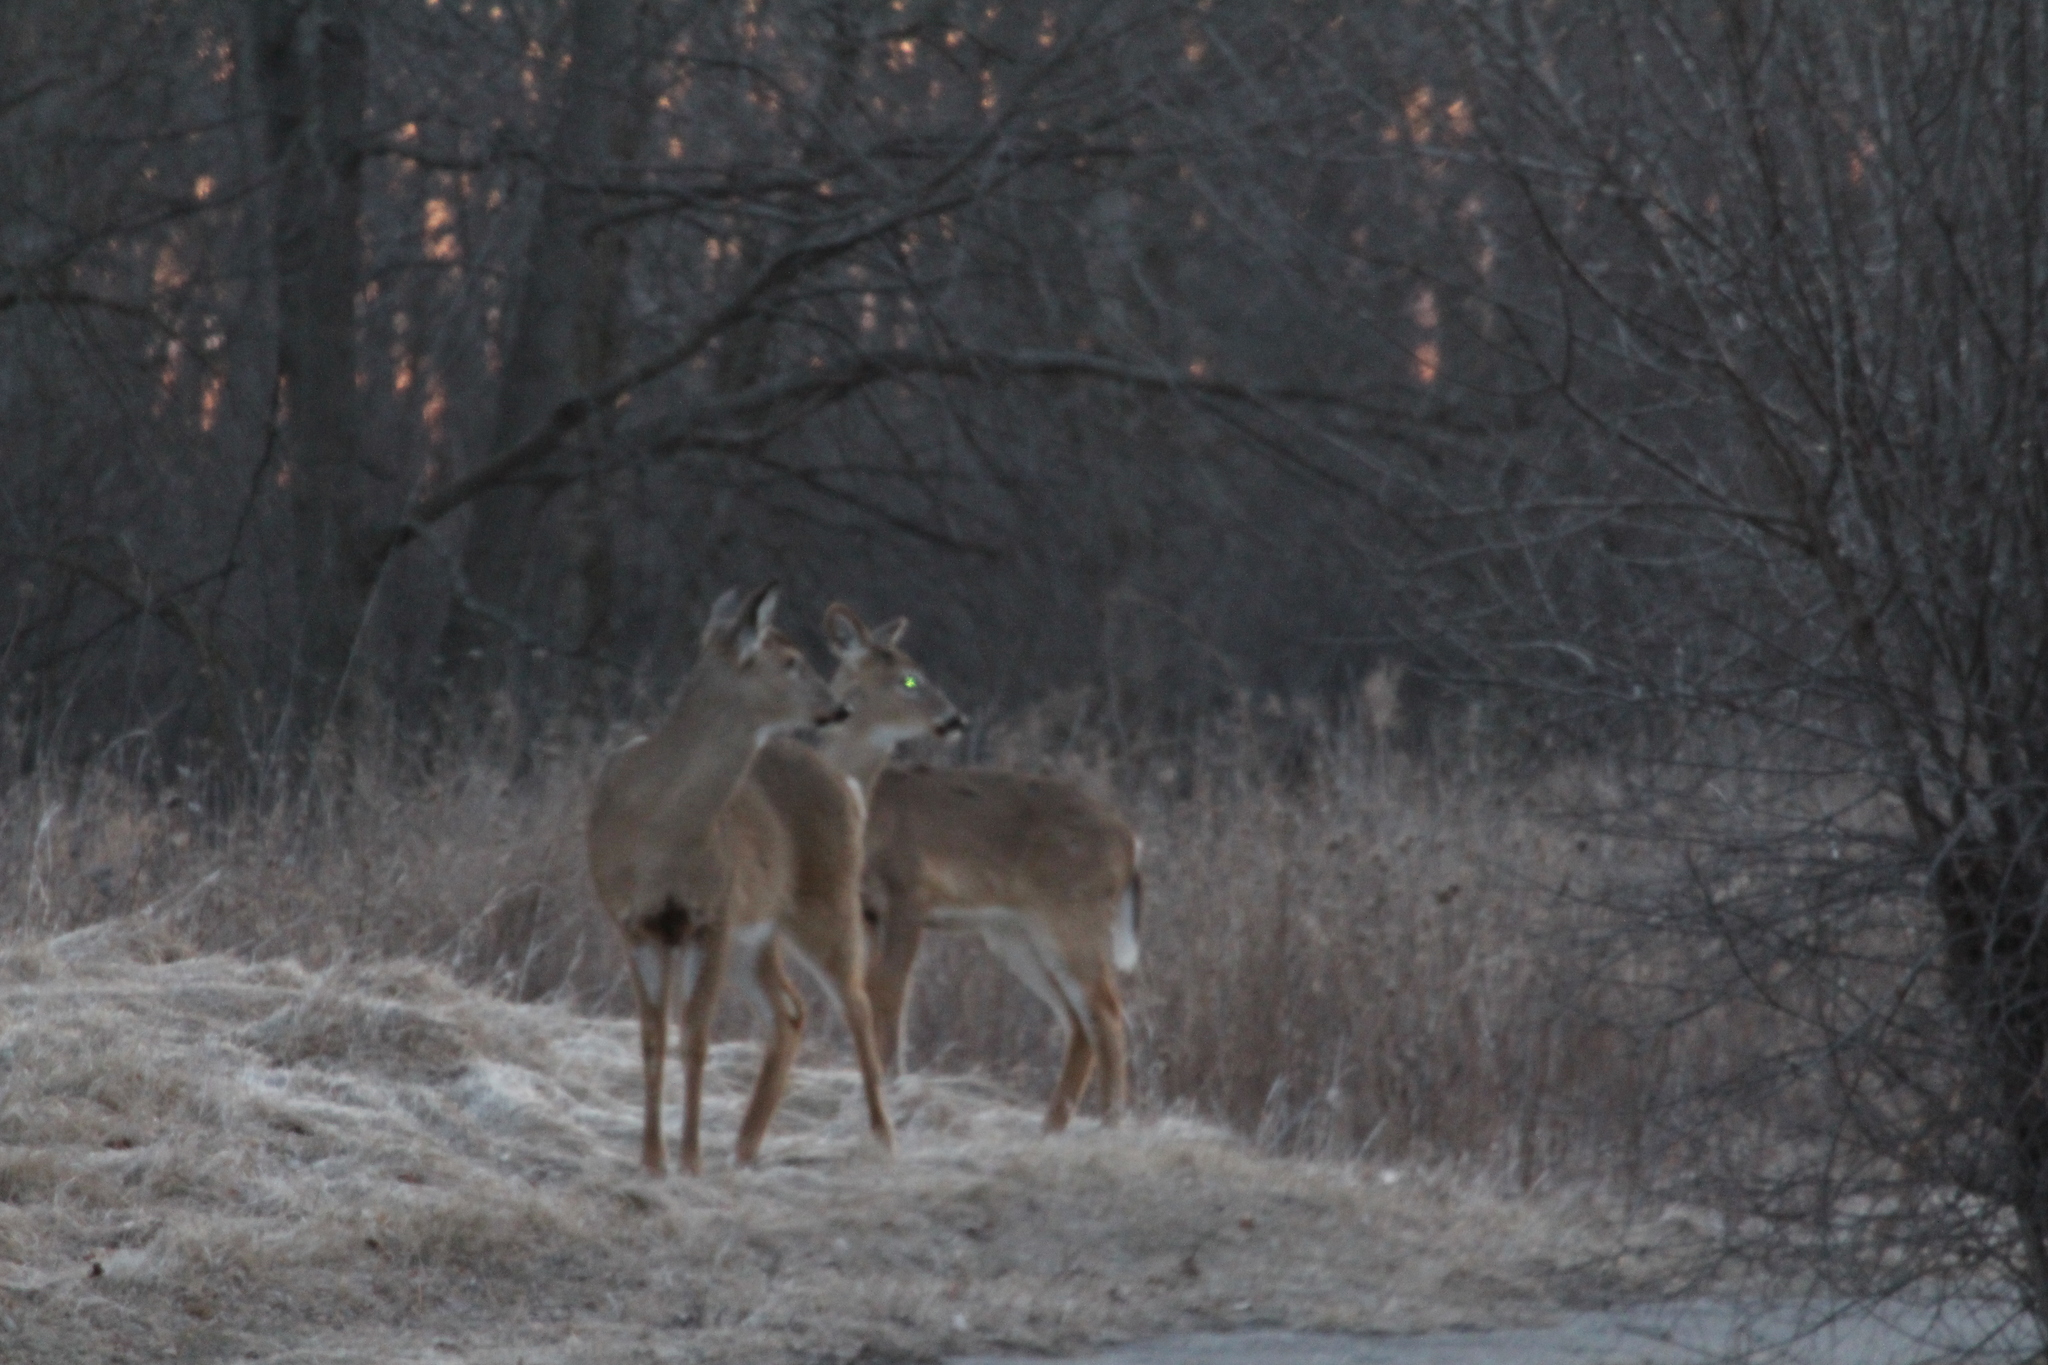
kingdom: Animalia
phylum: Chordata
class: Mammalia
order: Artiodactyla
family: Cervidae
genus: Odocoileus
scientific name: Odocoileus virginianus
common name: White-tailed deer
